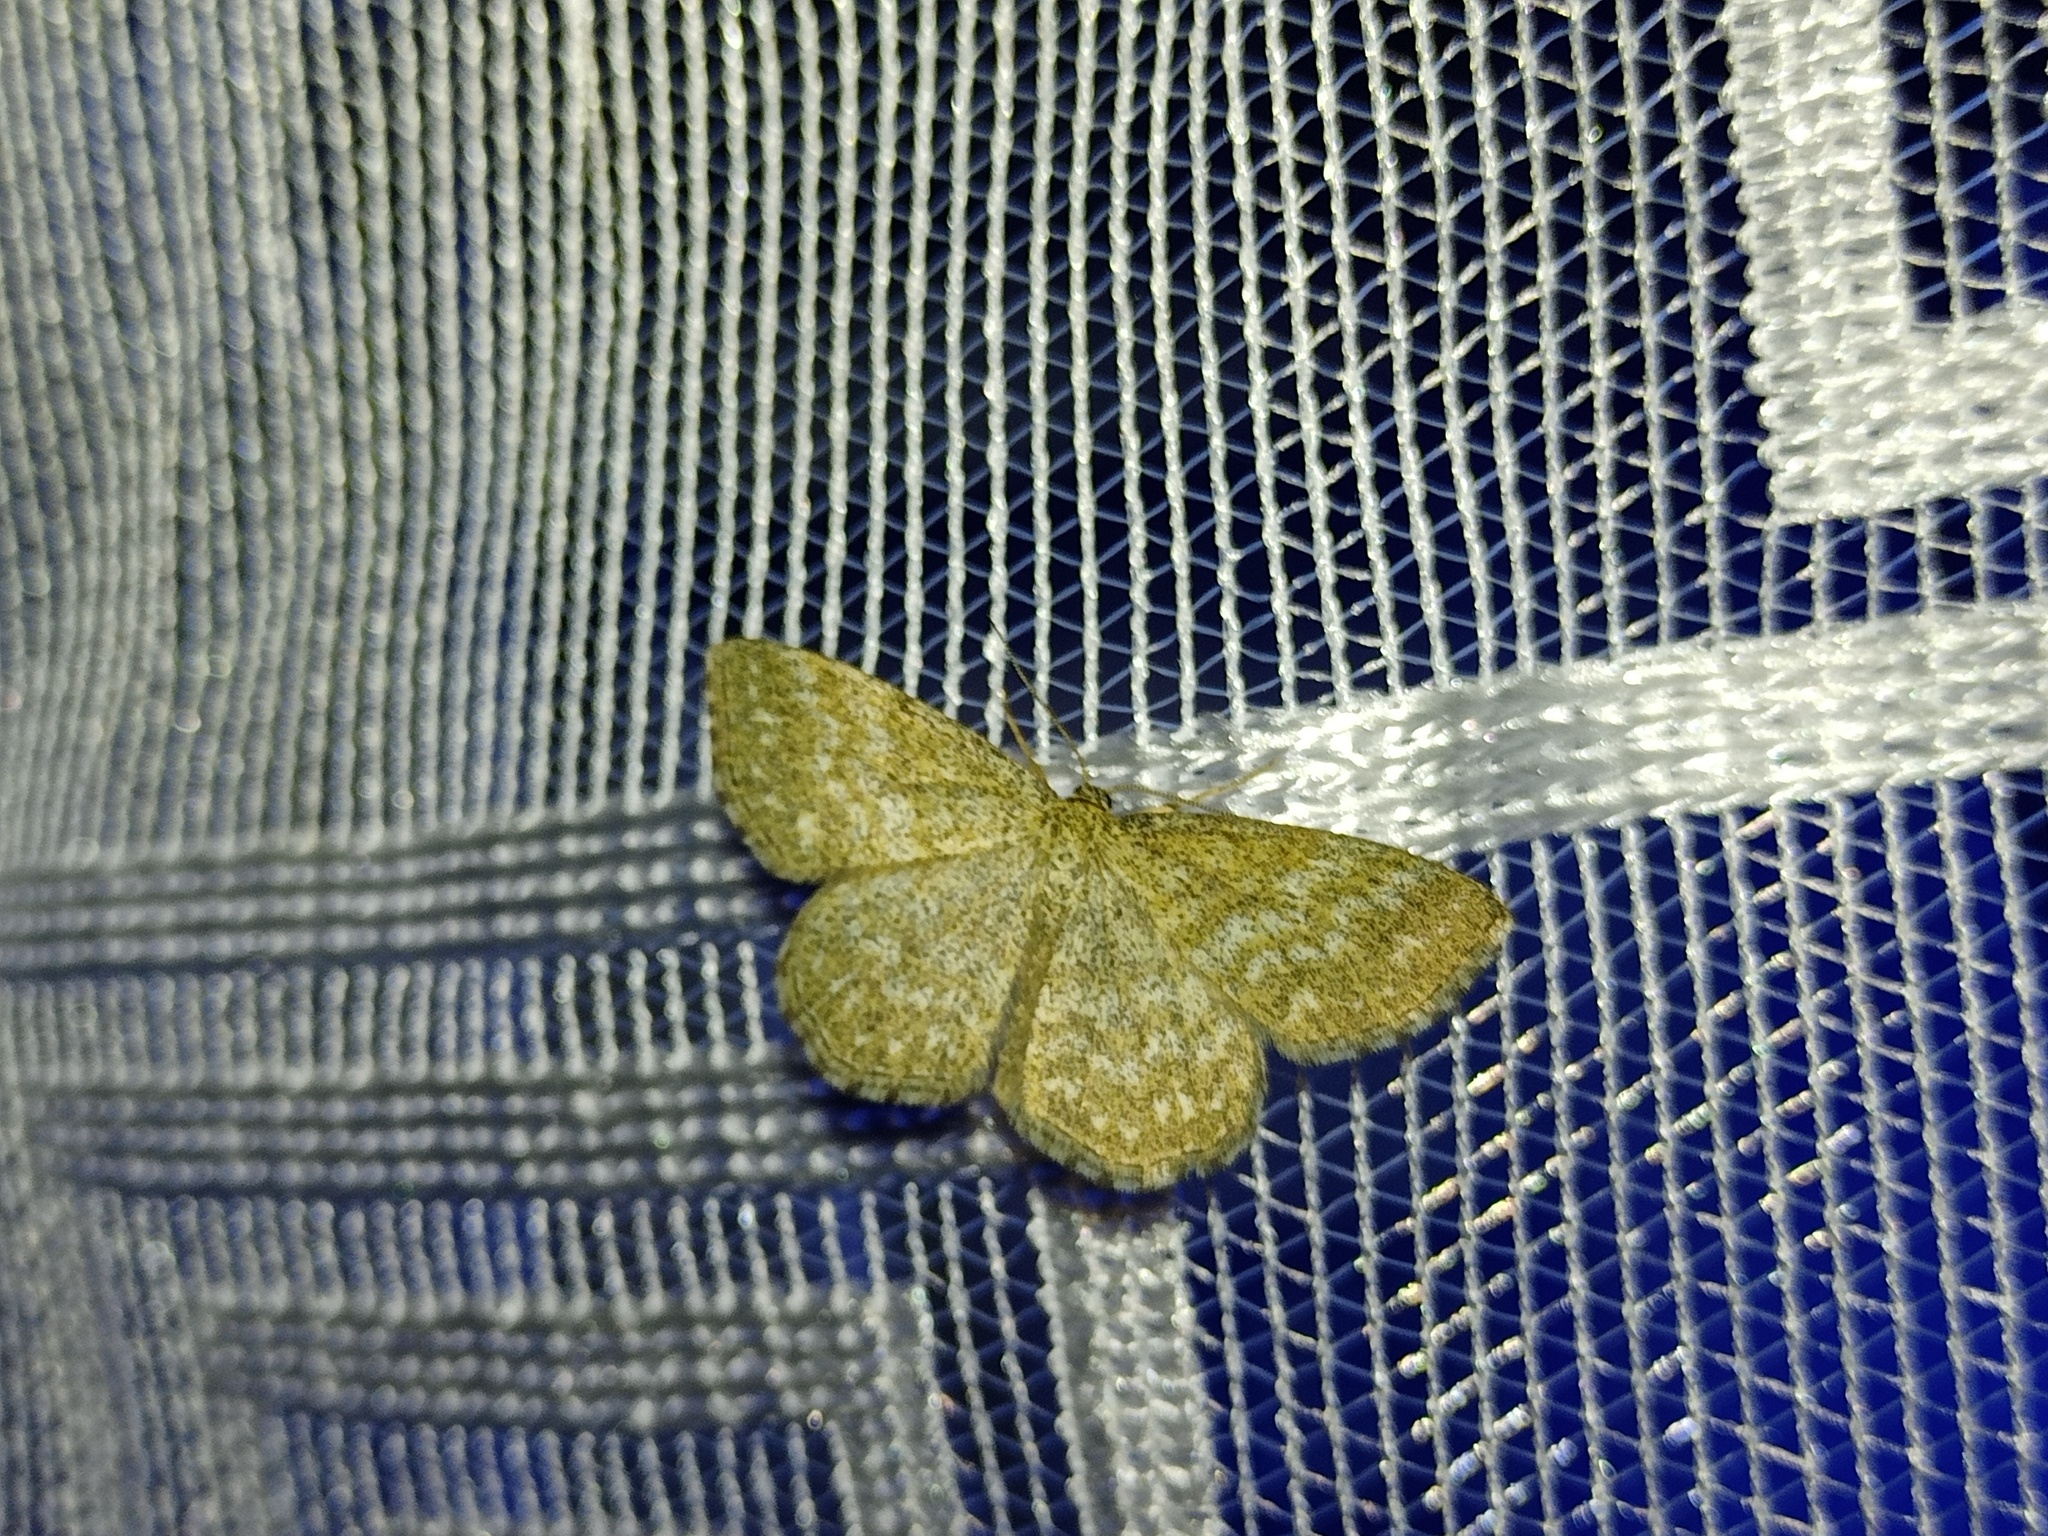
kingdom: Animalia
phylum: Arthropoda
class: Insecta
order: Lepidoptera
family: Geometridae
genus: Scopula
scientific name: Scopula immorata
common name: Lewes wave
